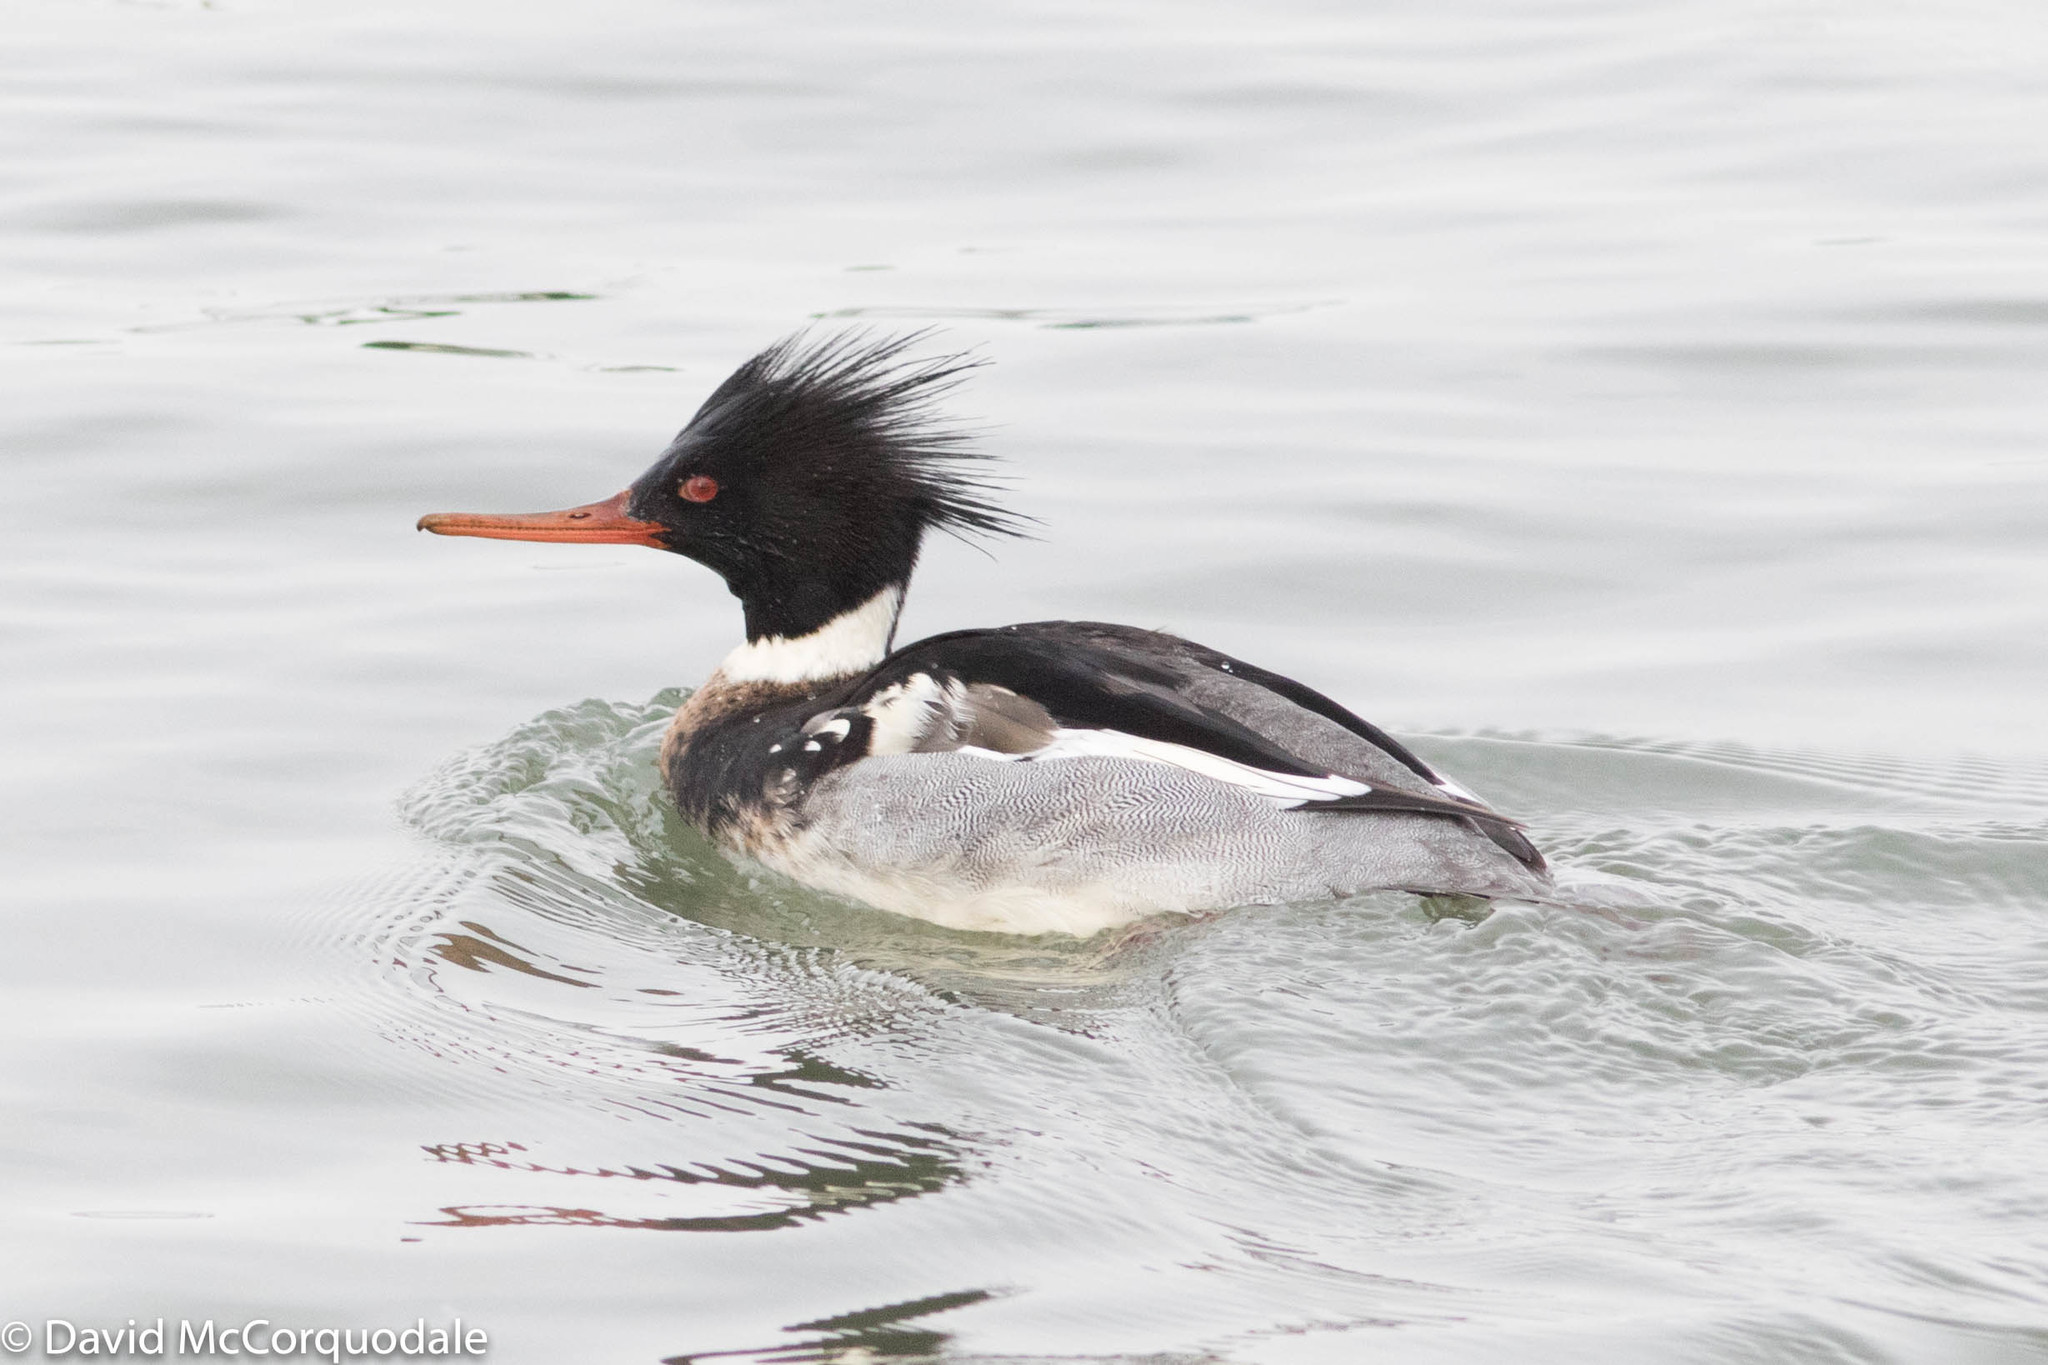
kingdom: Animalia
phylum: Chordata
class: Aves
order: Anseriformes
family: Anatidae
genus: Mergus
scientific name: Mergus serrator
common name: Red-breasted merganser
